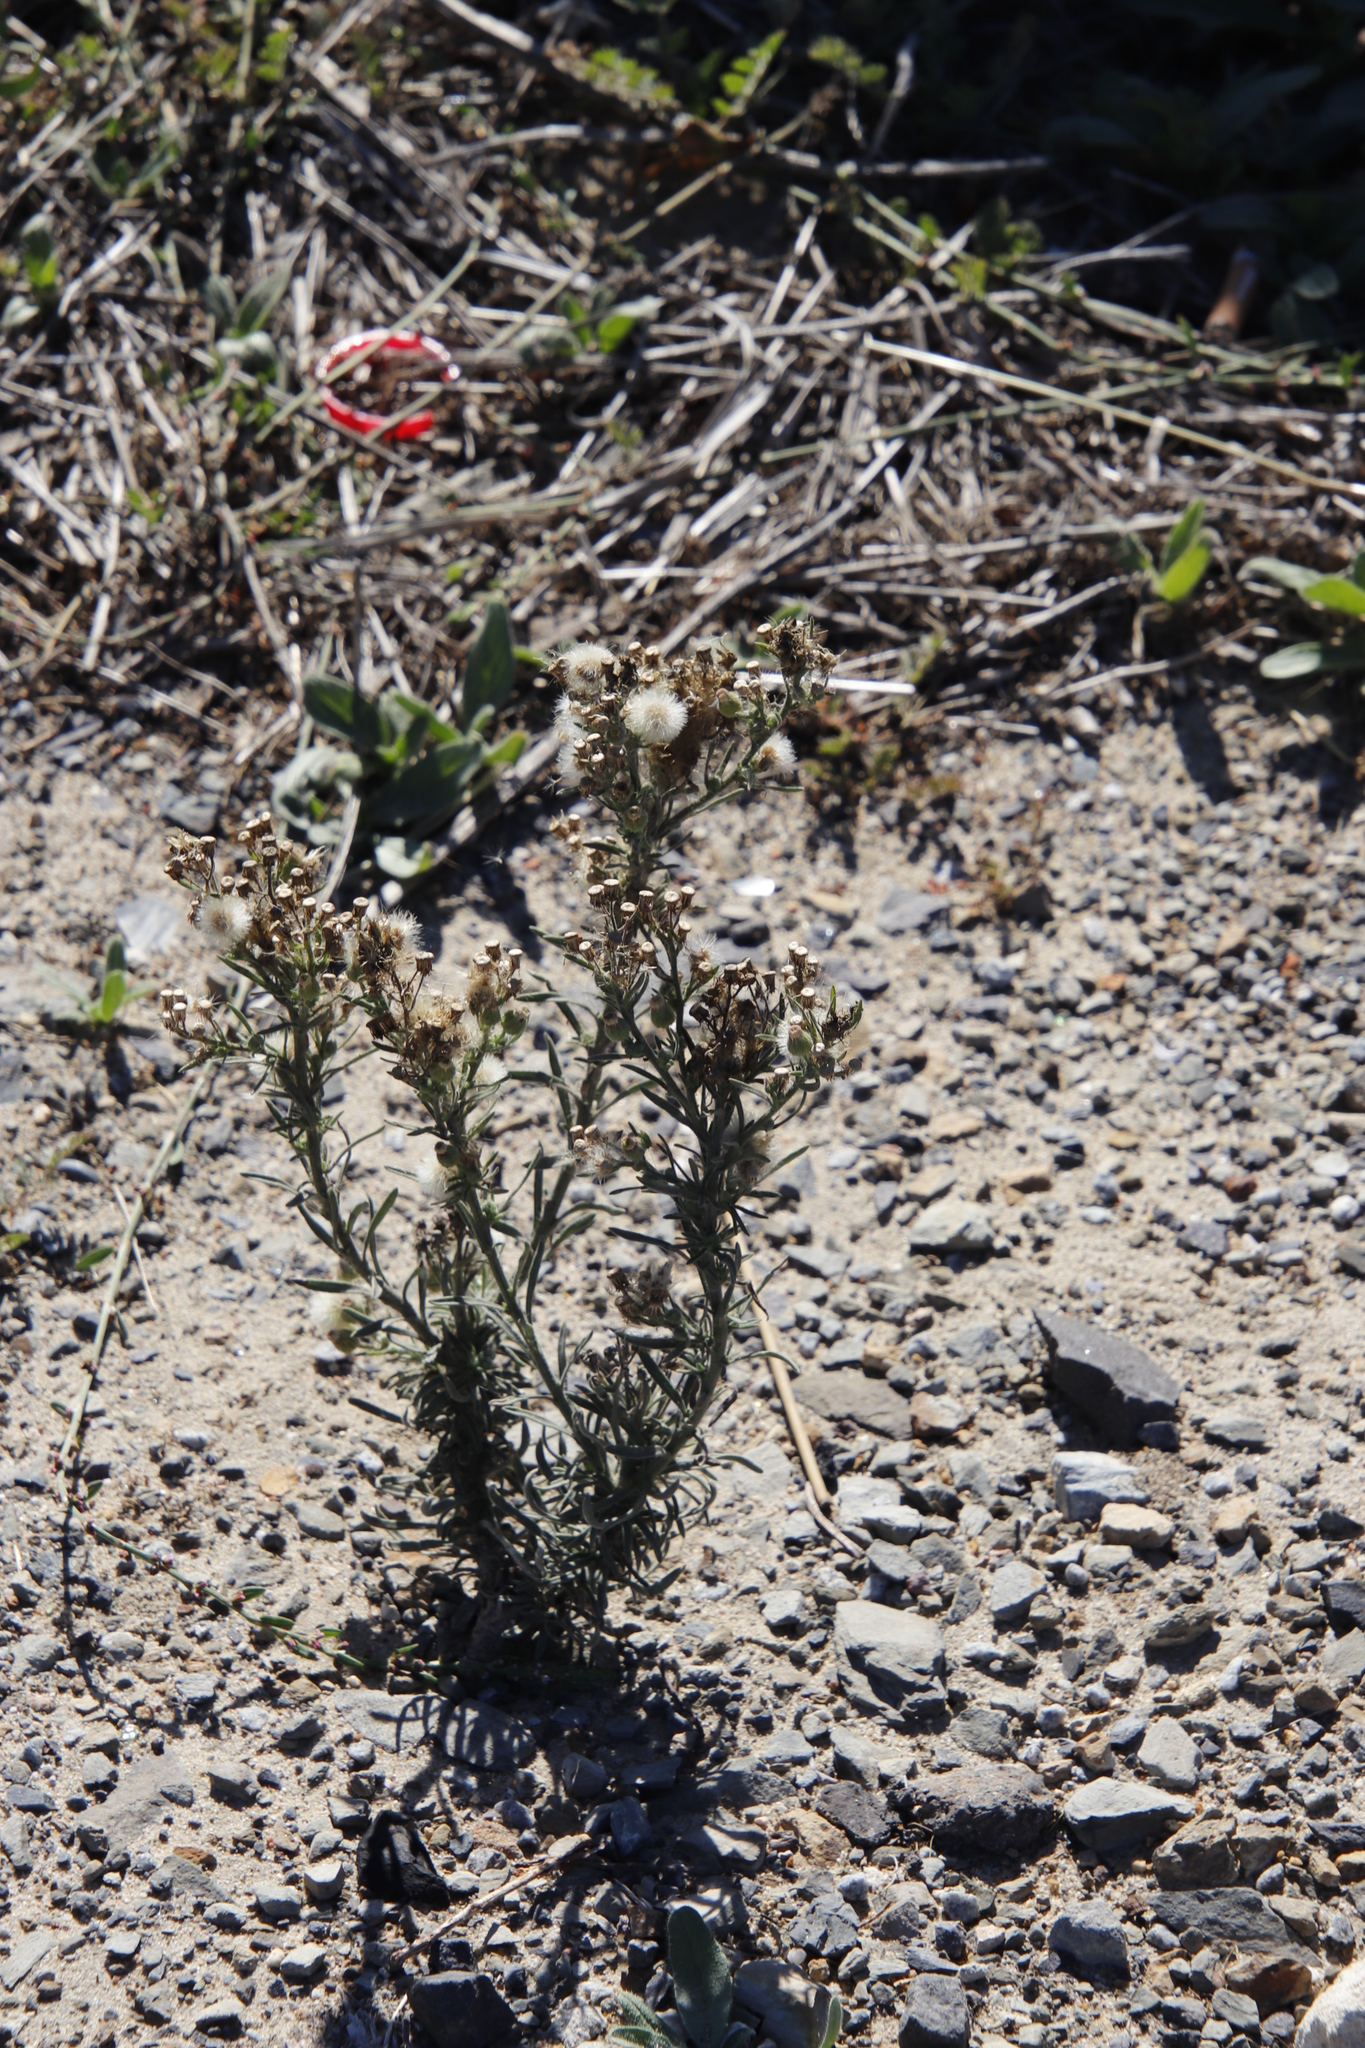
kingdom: Plantae
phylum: Tracheophyta
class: Magnoliopsida
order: Asterales
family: Asteraceae
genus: Erigeron
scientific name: Erigeron bonariensis
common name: Argentine fleabane
